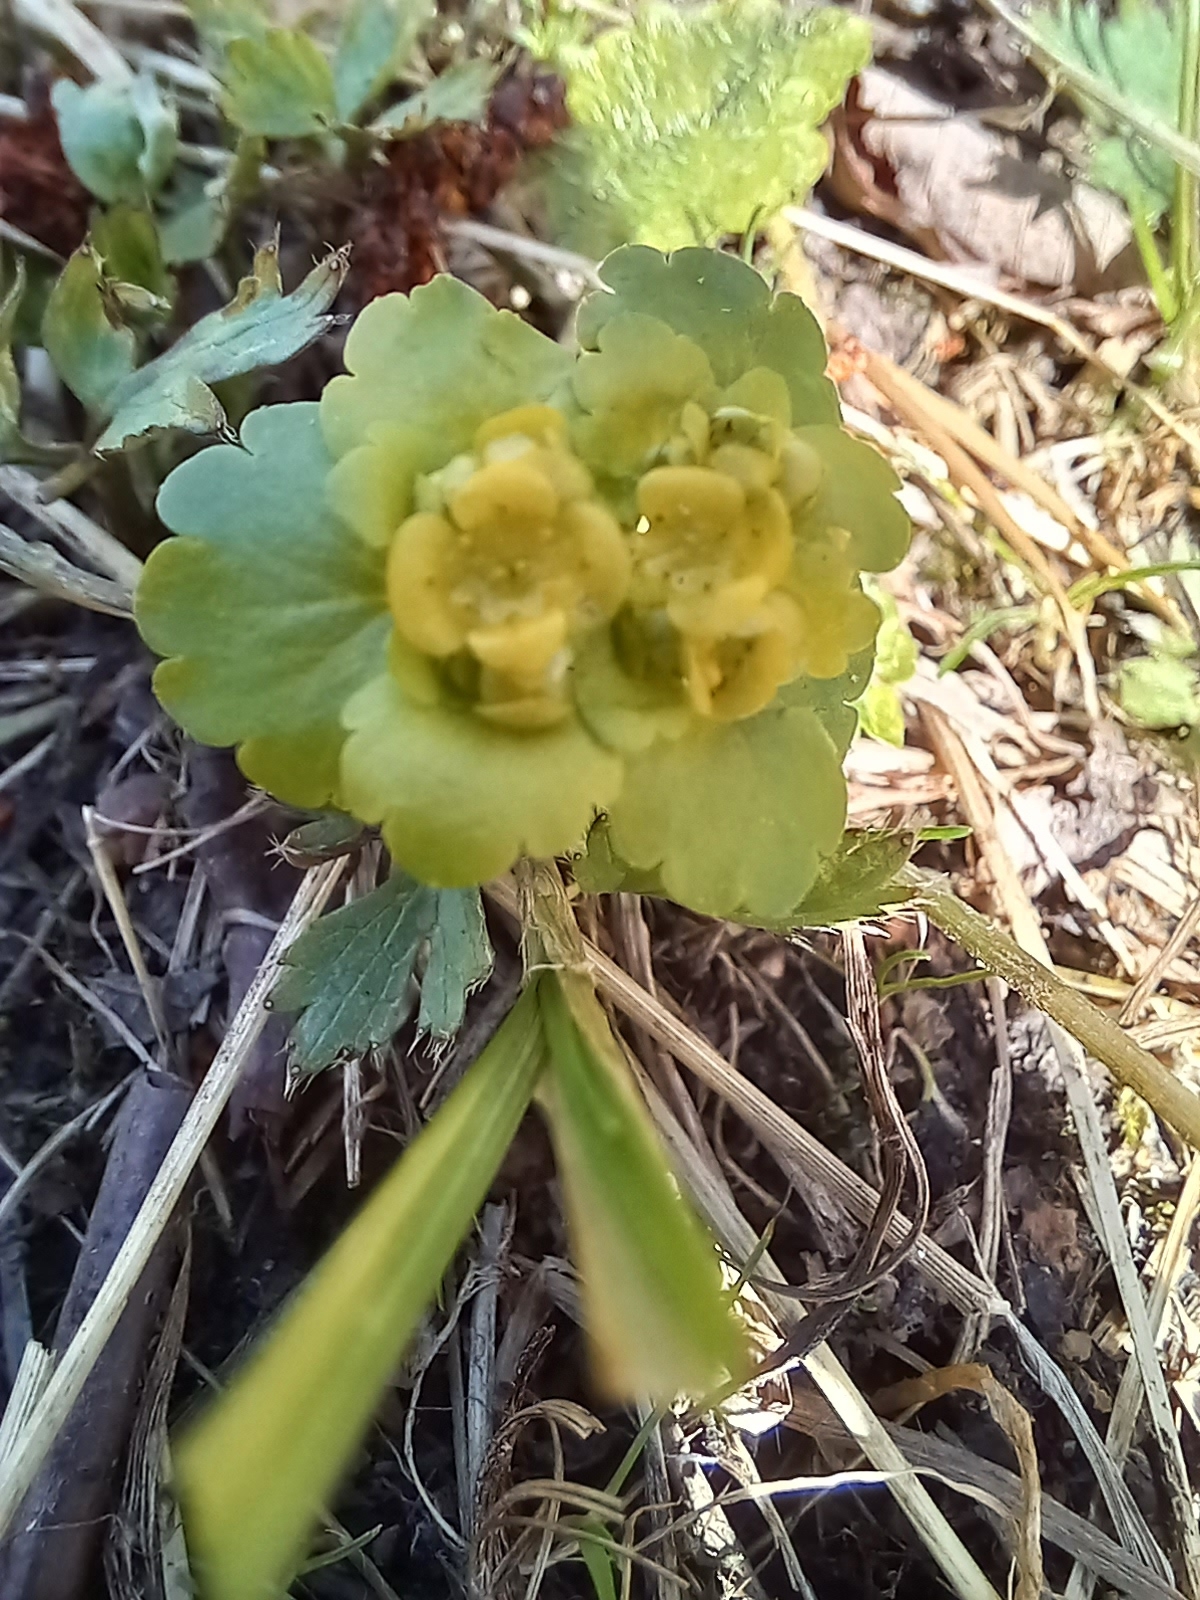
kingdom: Plantae
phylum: Tracheophyta
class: Magnoliopsida
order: Saxifragales
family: Saxifragaceae
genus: Chrysosplenium
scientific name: Chrysosplenium alternifolium
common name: Alternate-leaved golden-saxifrage
